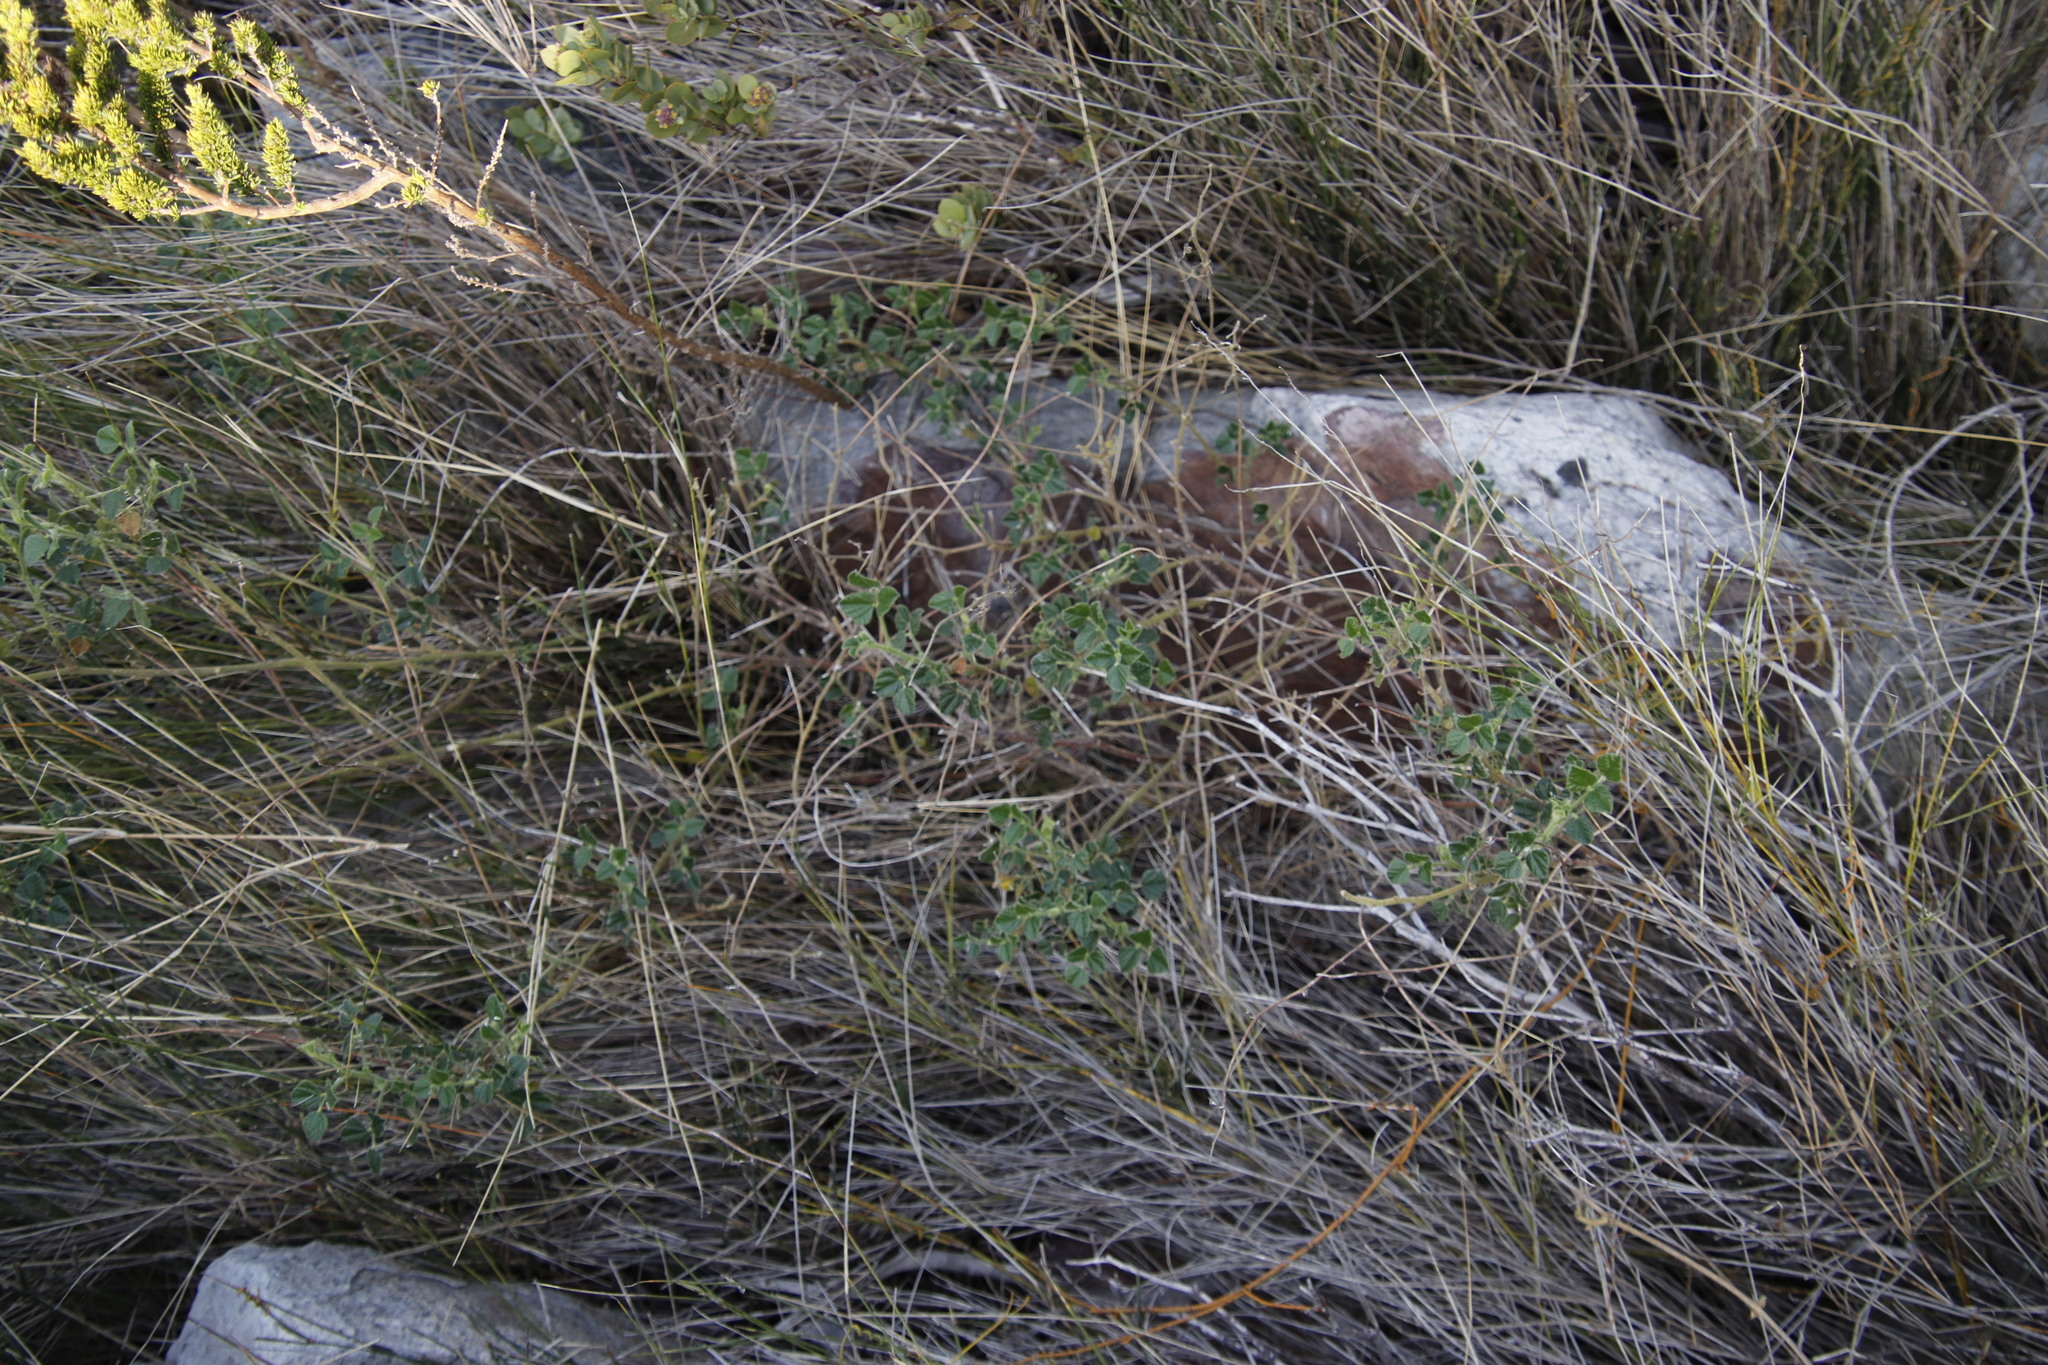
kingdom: Plantae
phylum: Tracheophyta
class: Magnoliopsida
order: Fabales
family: Fabaceae
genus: Bolusafra
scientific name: Bolusafra bituminosa
